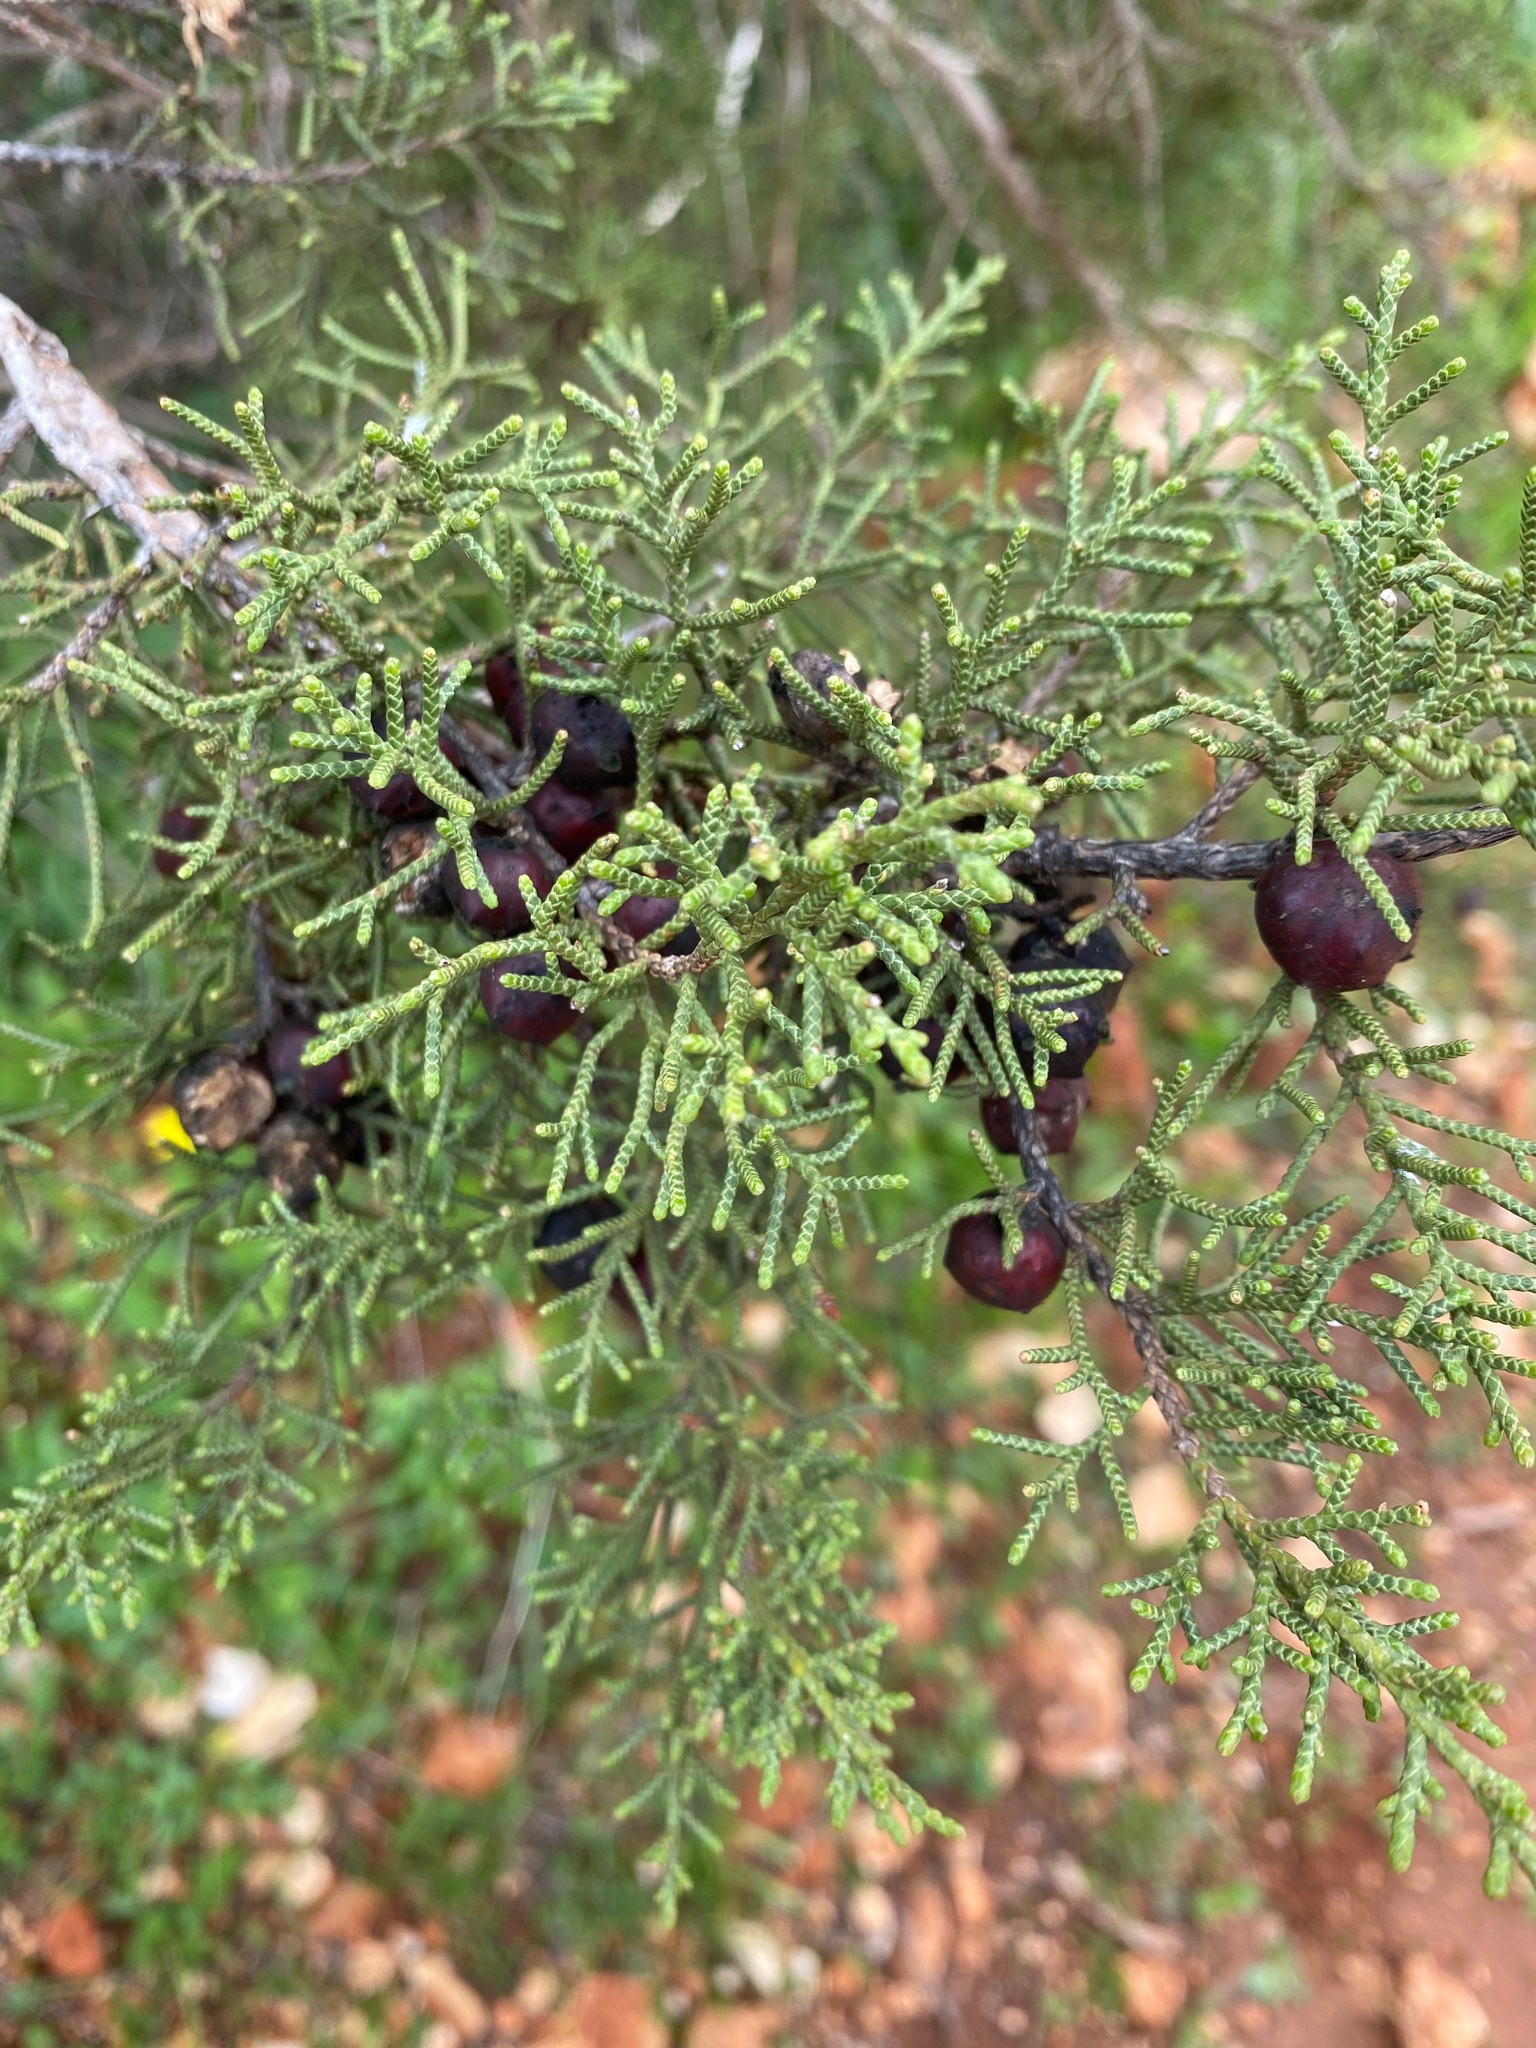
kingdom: Plantae
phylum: Tracheophyta
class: Pinopsida
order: Pinales
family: Cupressaceae
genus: Juniperus
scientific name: Juniperus phoenicea
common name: Phoenician juniper
